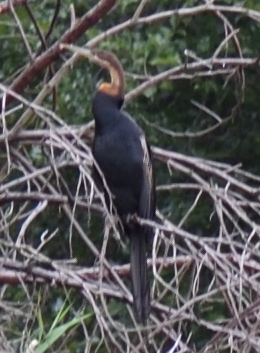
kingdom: Animalia
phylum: Chordata
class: Aves
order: Suliformes
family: Anhingidae
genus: Anhinga
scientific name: Anhinga rufa
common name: African darter
